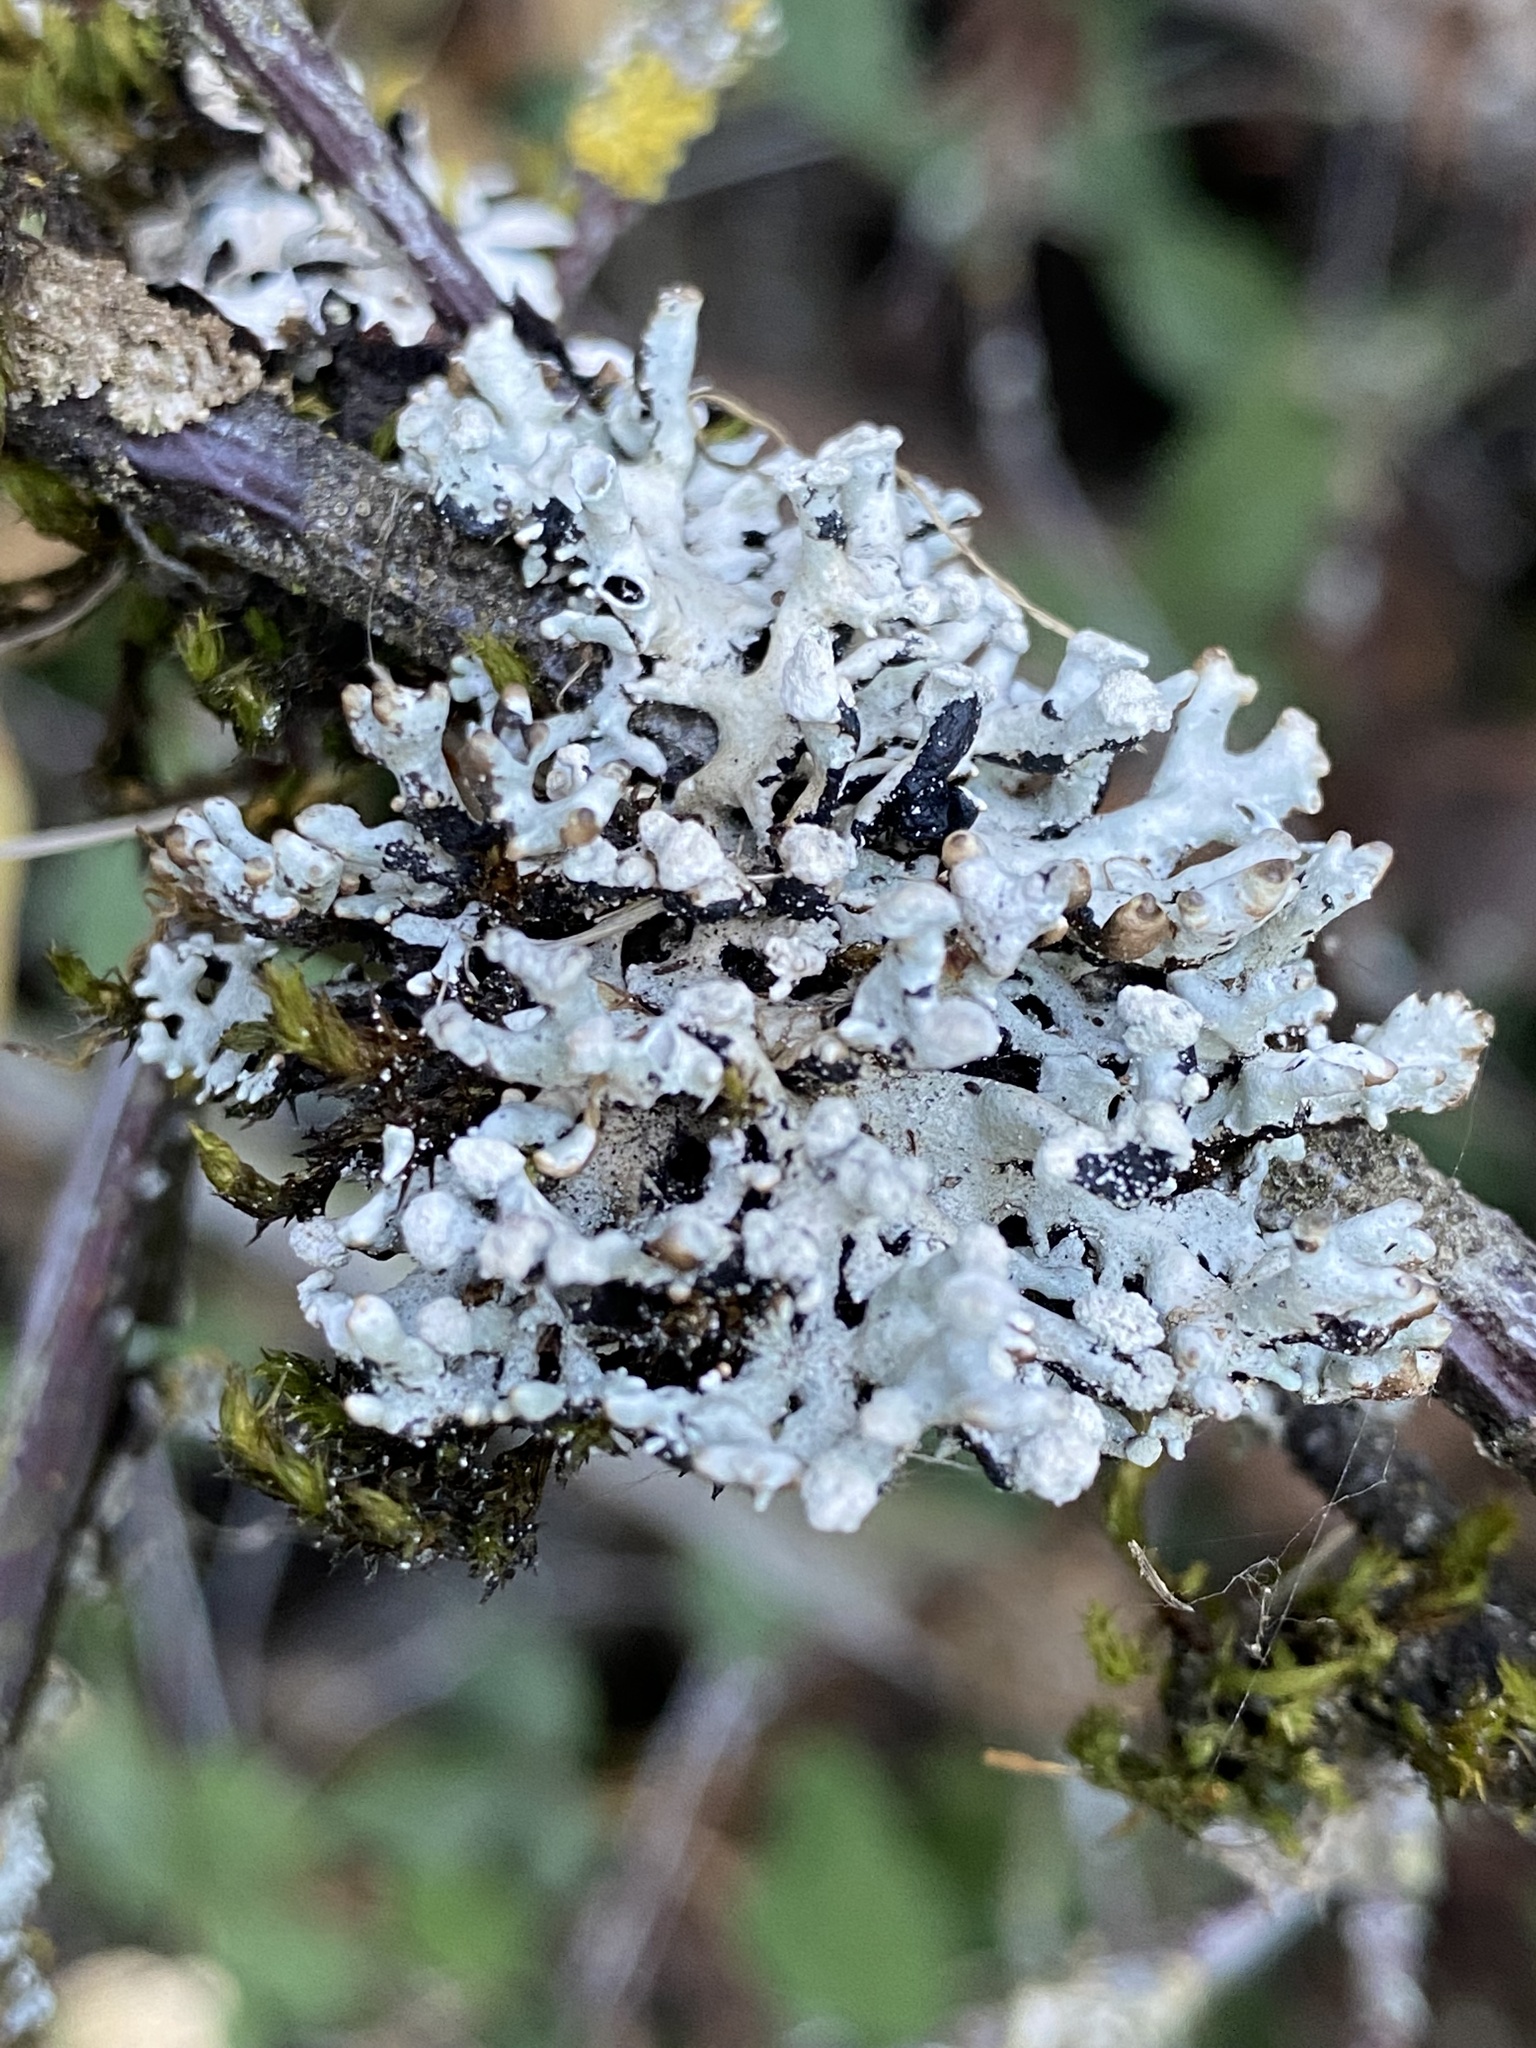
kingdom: Fungi
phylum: Ascomycota
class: Lecanoromycetes
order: Lecanorales
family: Parmeliaceae
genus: Hypogymnia
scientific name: Hypogymnia tubulosa
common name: Powder-headed tube lichen
